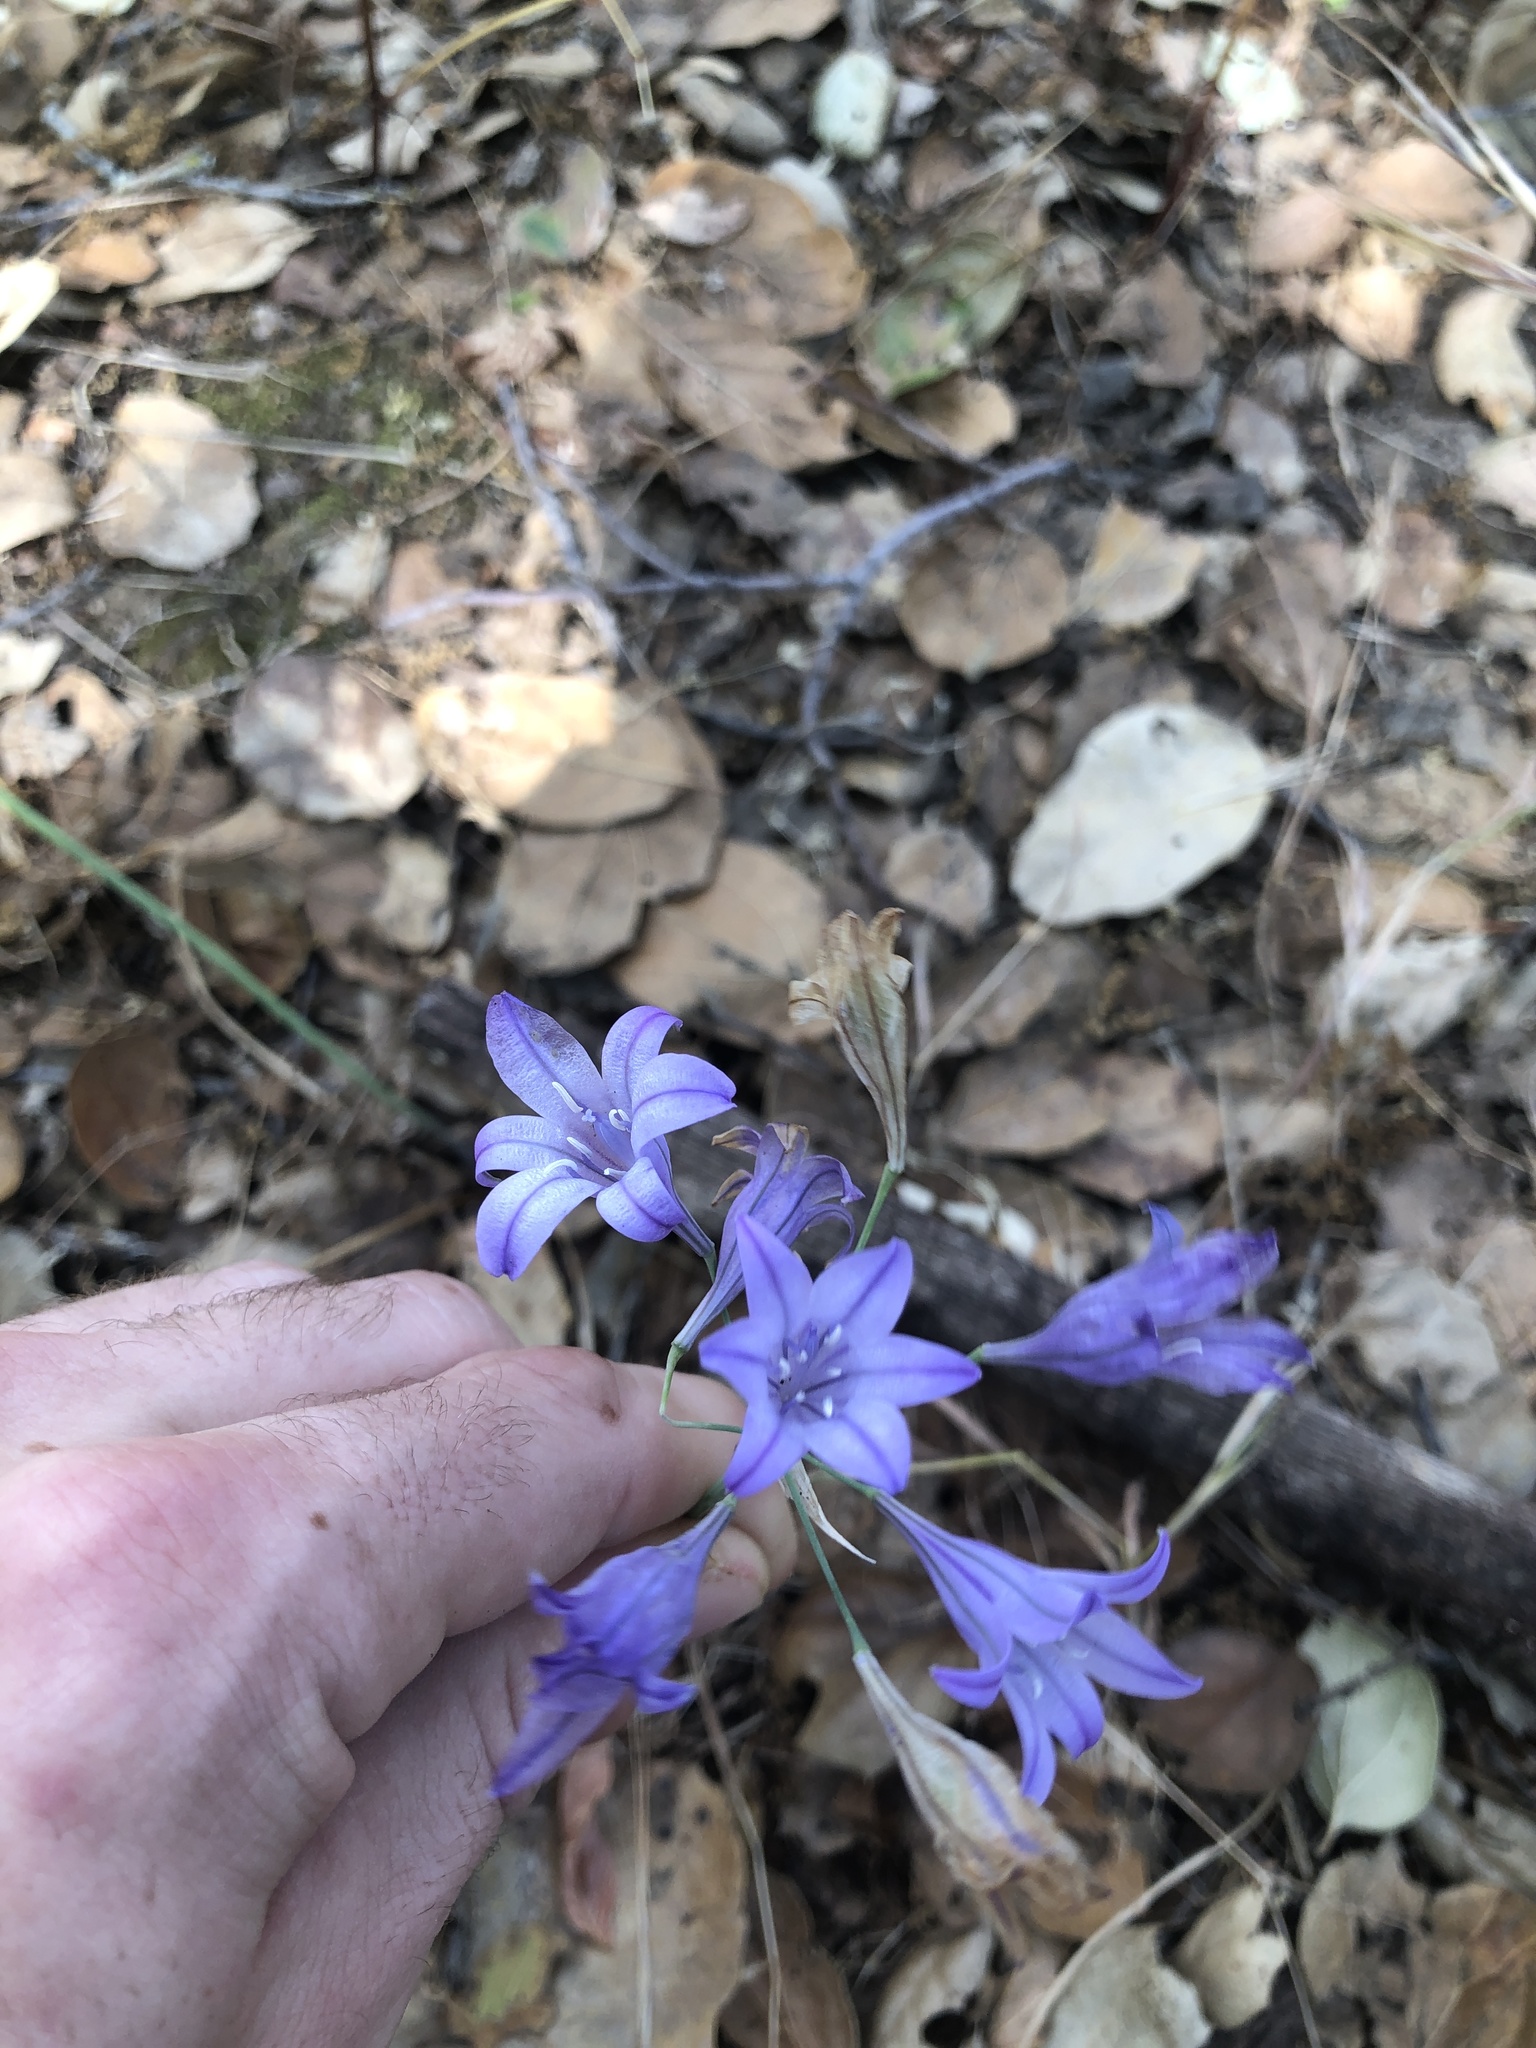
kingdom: Plantae
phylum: Tracheophyta
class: Liliopsida
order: Asparagales
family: Asparagaceae
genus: Triteleia
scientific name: Triteleia laxa
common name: Triplet-lily
